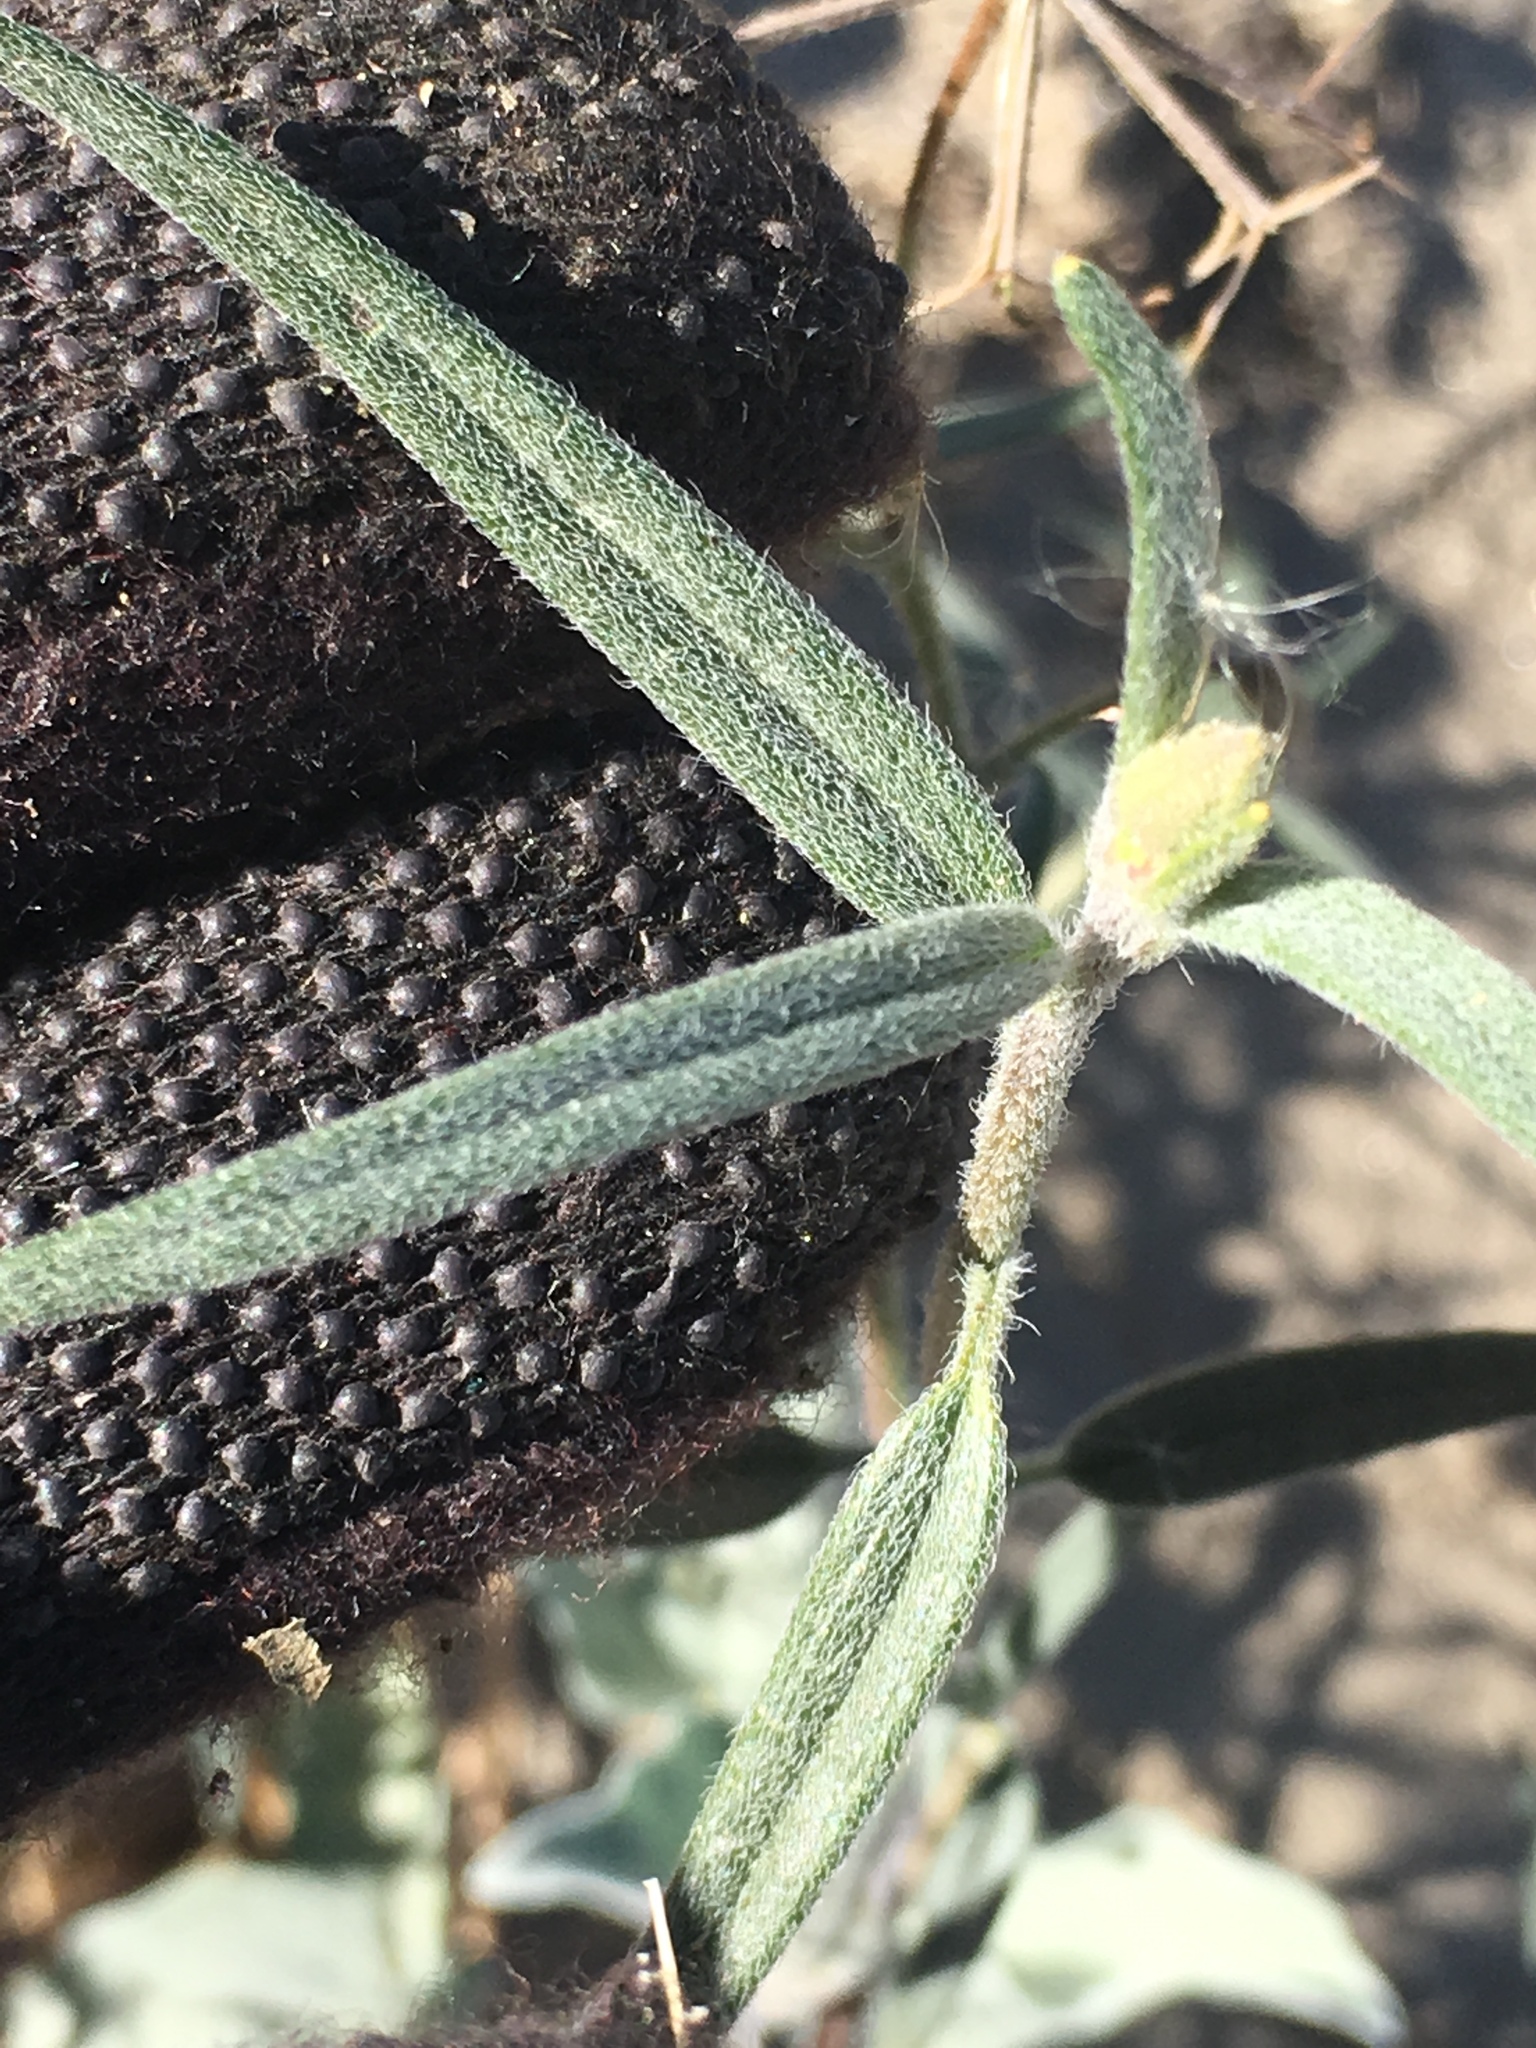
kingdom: Plantae
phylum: Tracheophyta
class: Magnoliopsida
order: Asterales
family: Asteraceae
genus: Palafoxia
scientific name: Palafoxia arida
